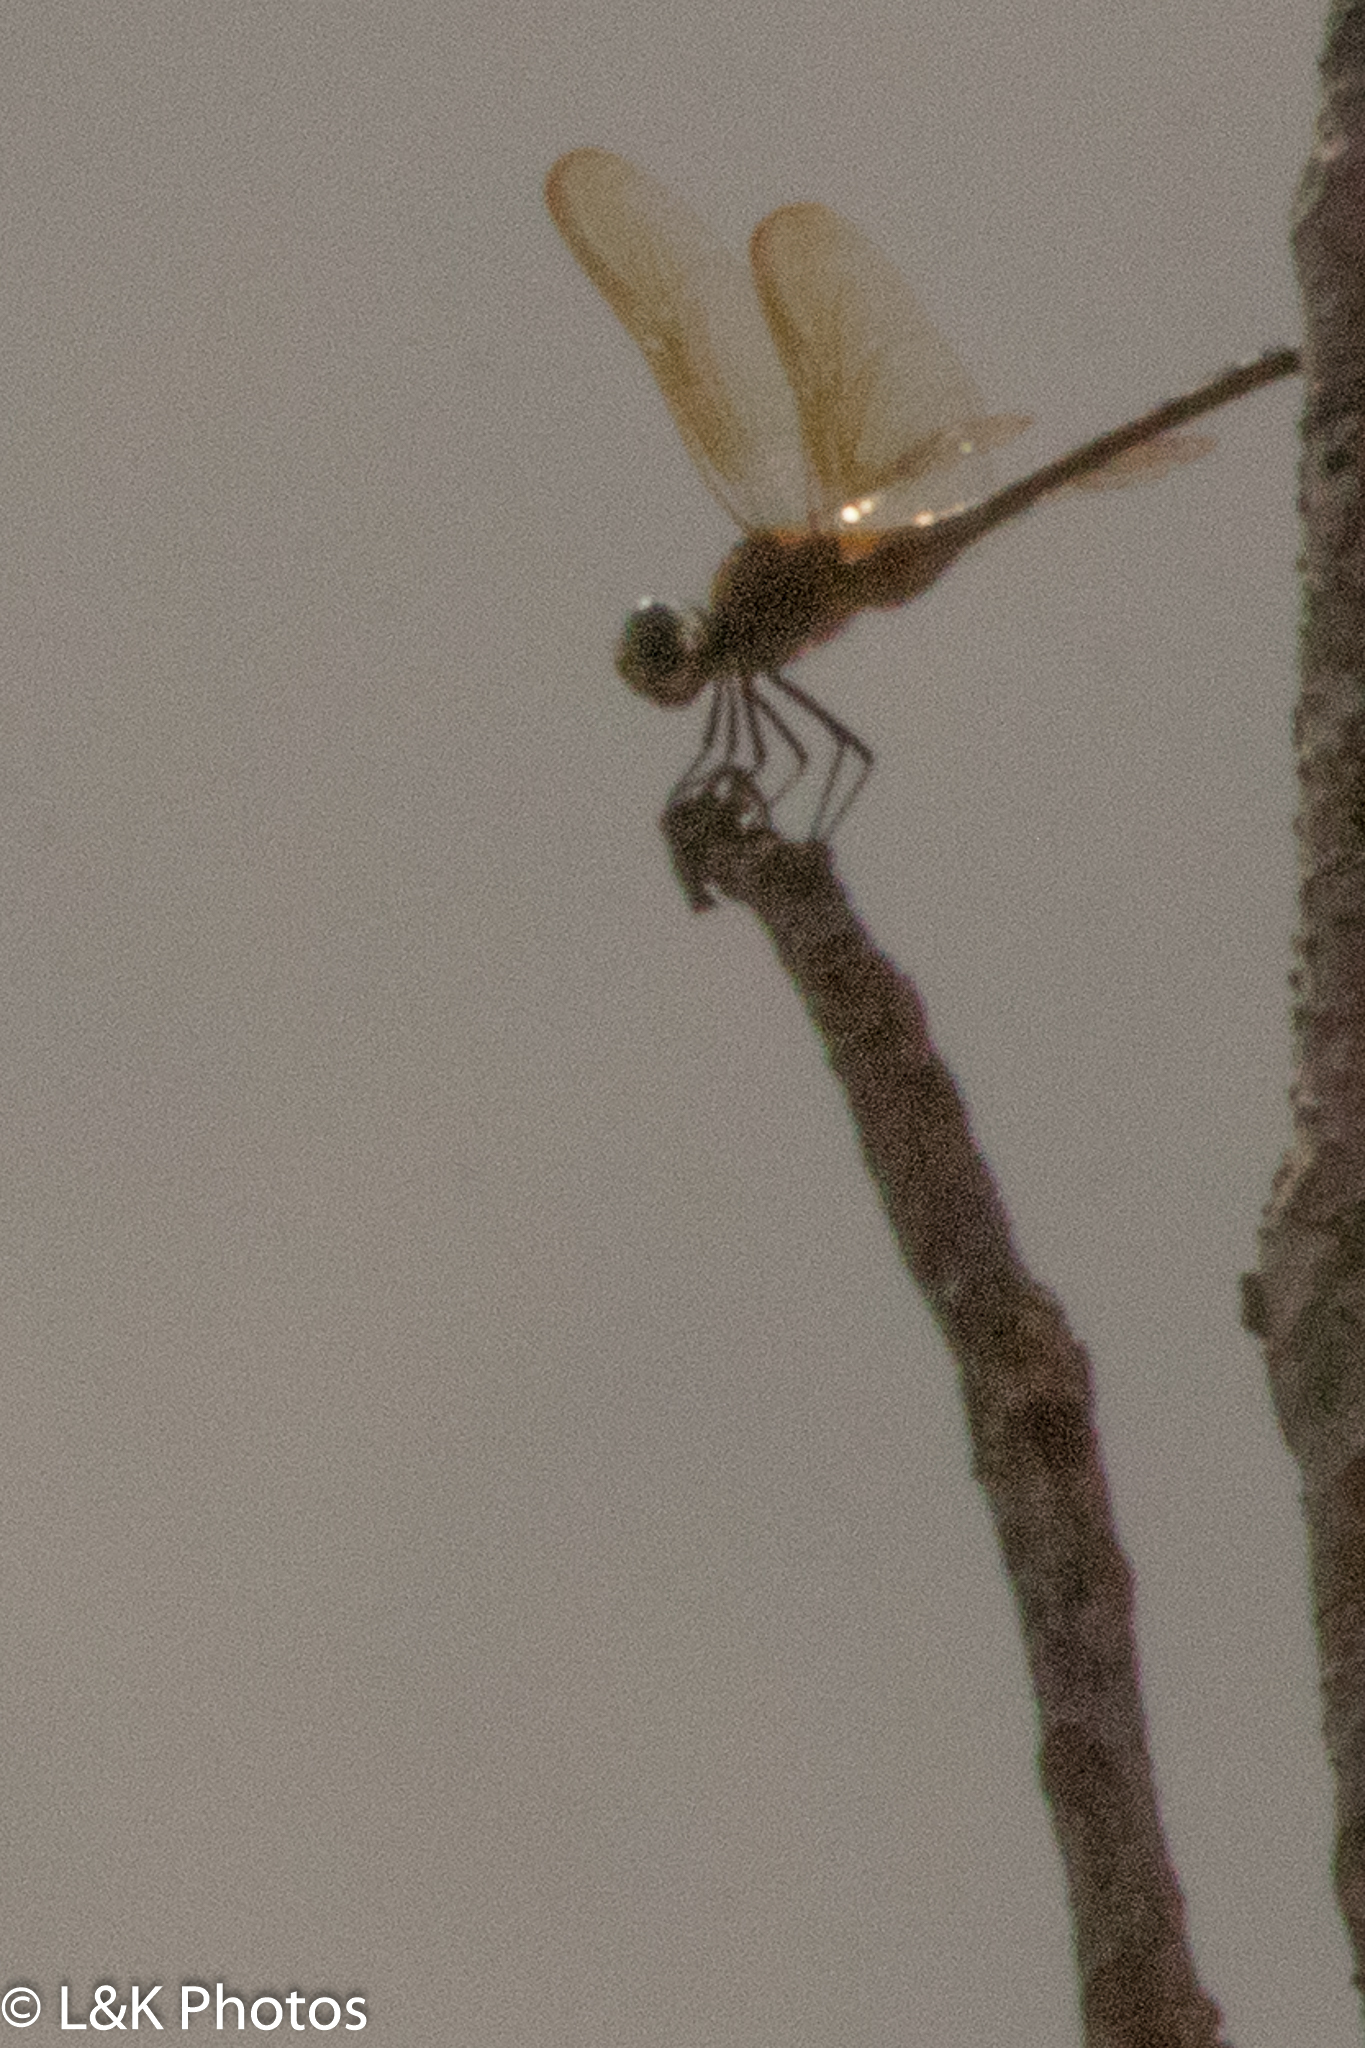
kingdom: Animalia
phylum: Arthropoda
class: Insecta
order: Odonata
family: Libellulidae
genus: Brachymesia
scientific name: Brachymesia herbida
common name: Tawny pennant
